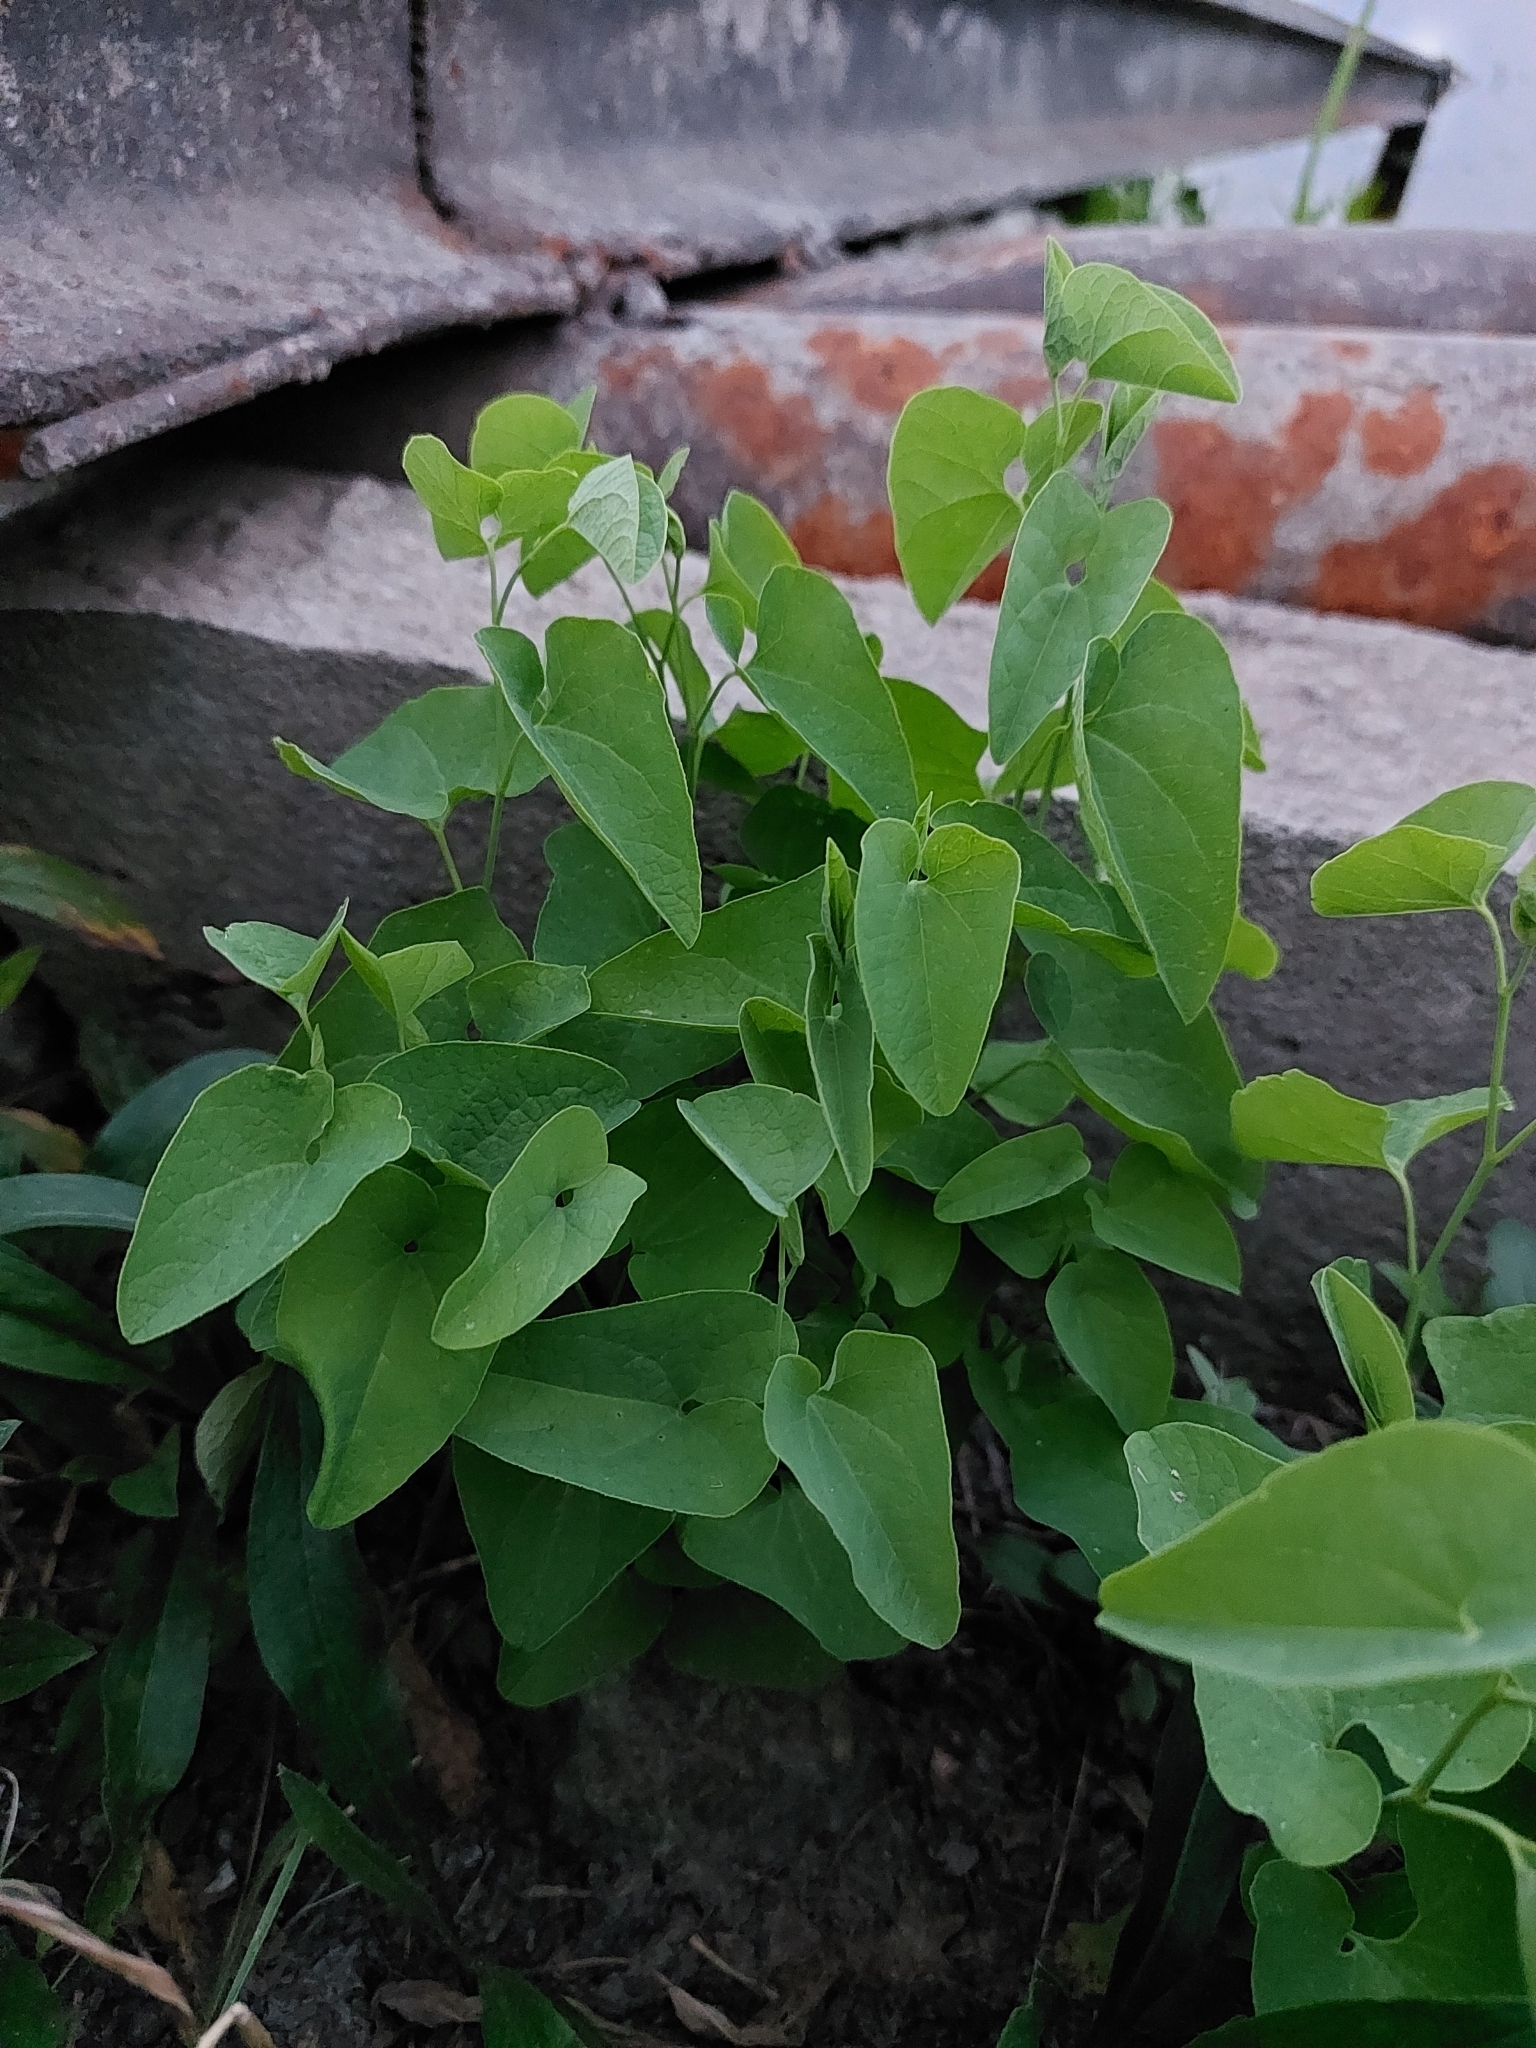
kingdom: Plantae
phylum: Tracheophyta
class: Magnoliopsida
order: Piperales
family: Aristolochiaceae
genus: Aristolochia
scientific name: Aristolochia clematitis
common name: Birthwort
